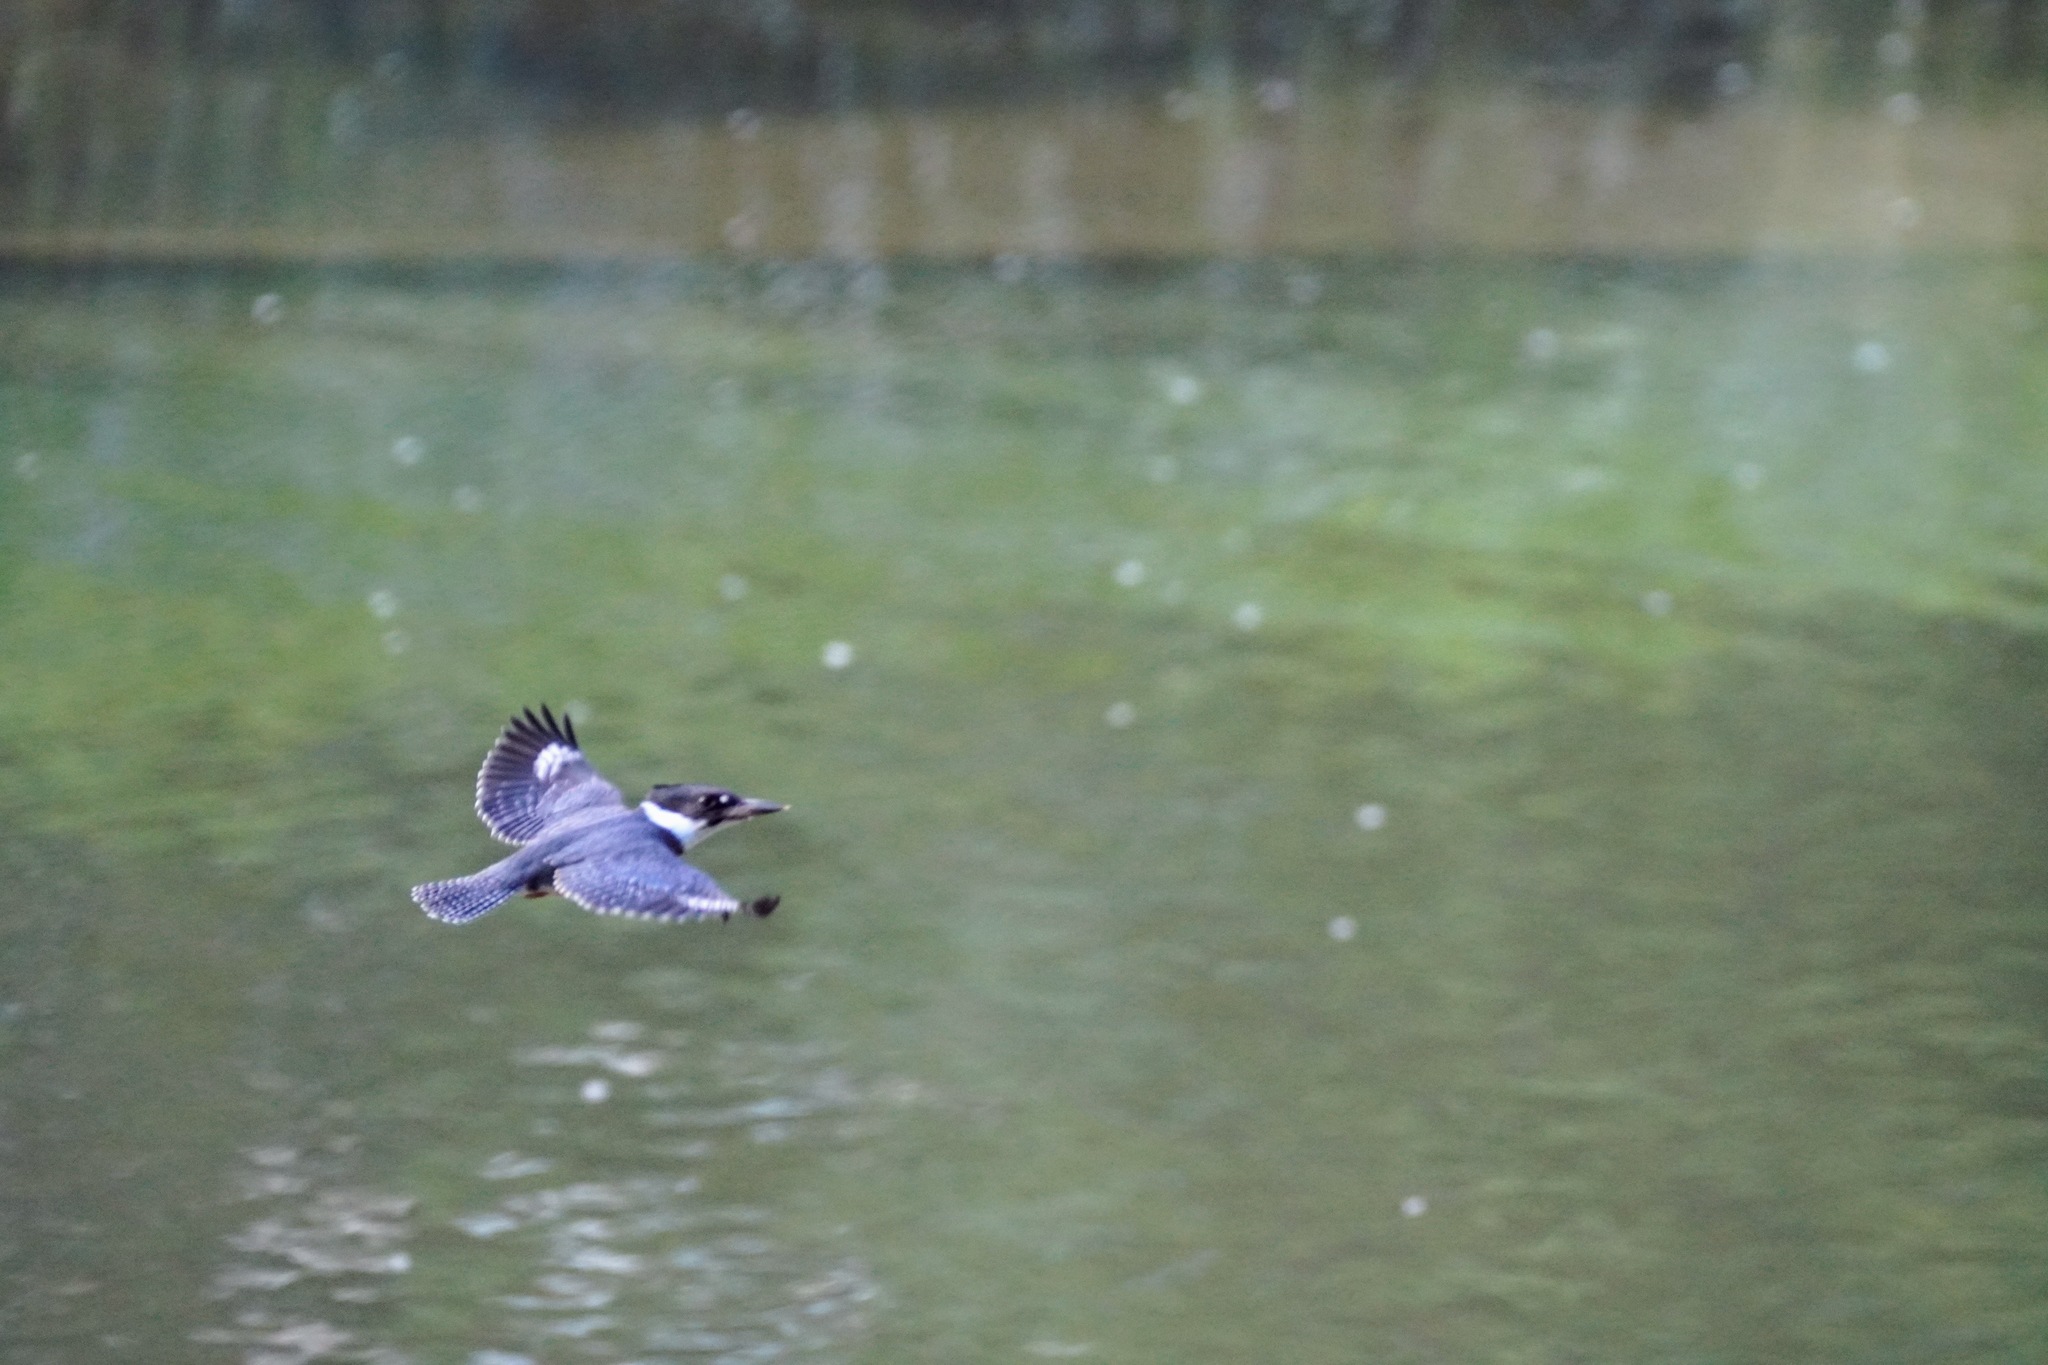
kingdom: Animalia
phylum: Chordata
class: Aves
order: Coraciiformes
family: Alcedinidae
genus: Megaceryle
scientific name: Megaceryle alcyon
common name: Belted kingfisher
